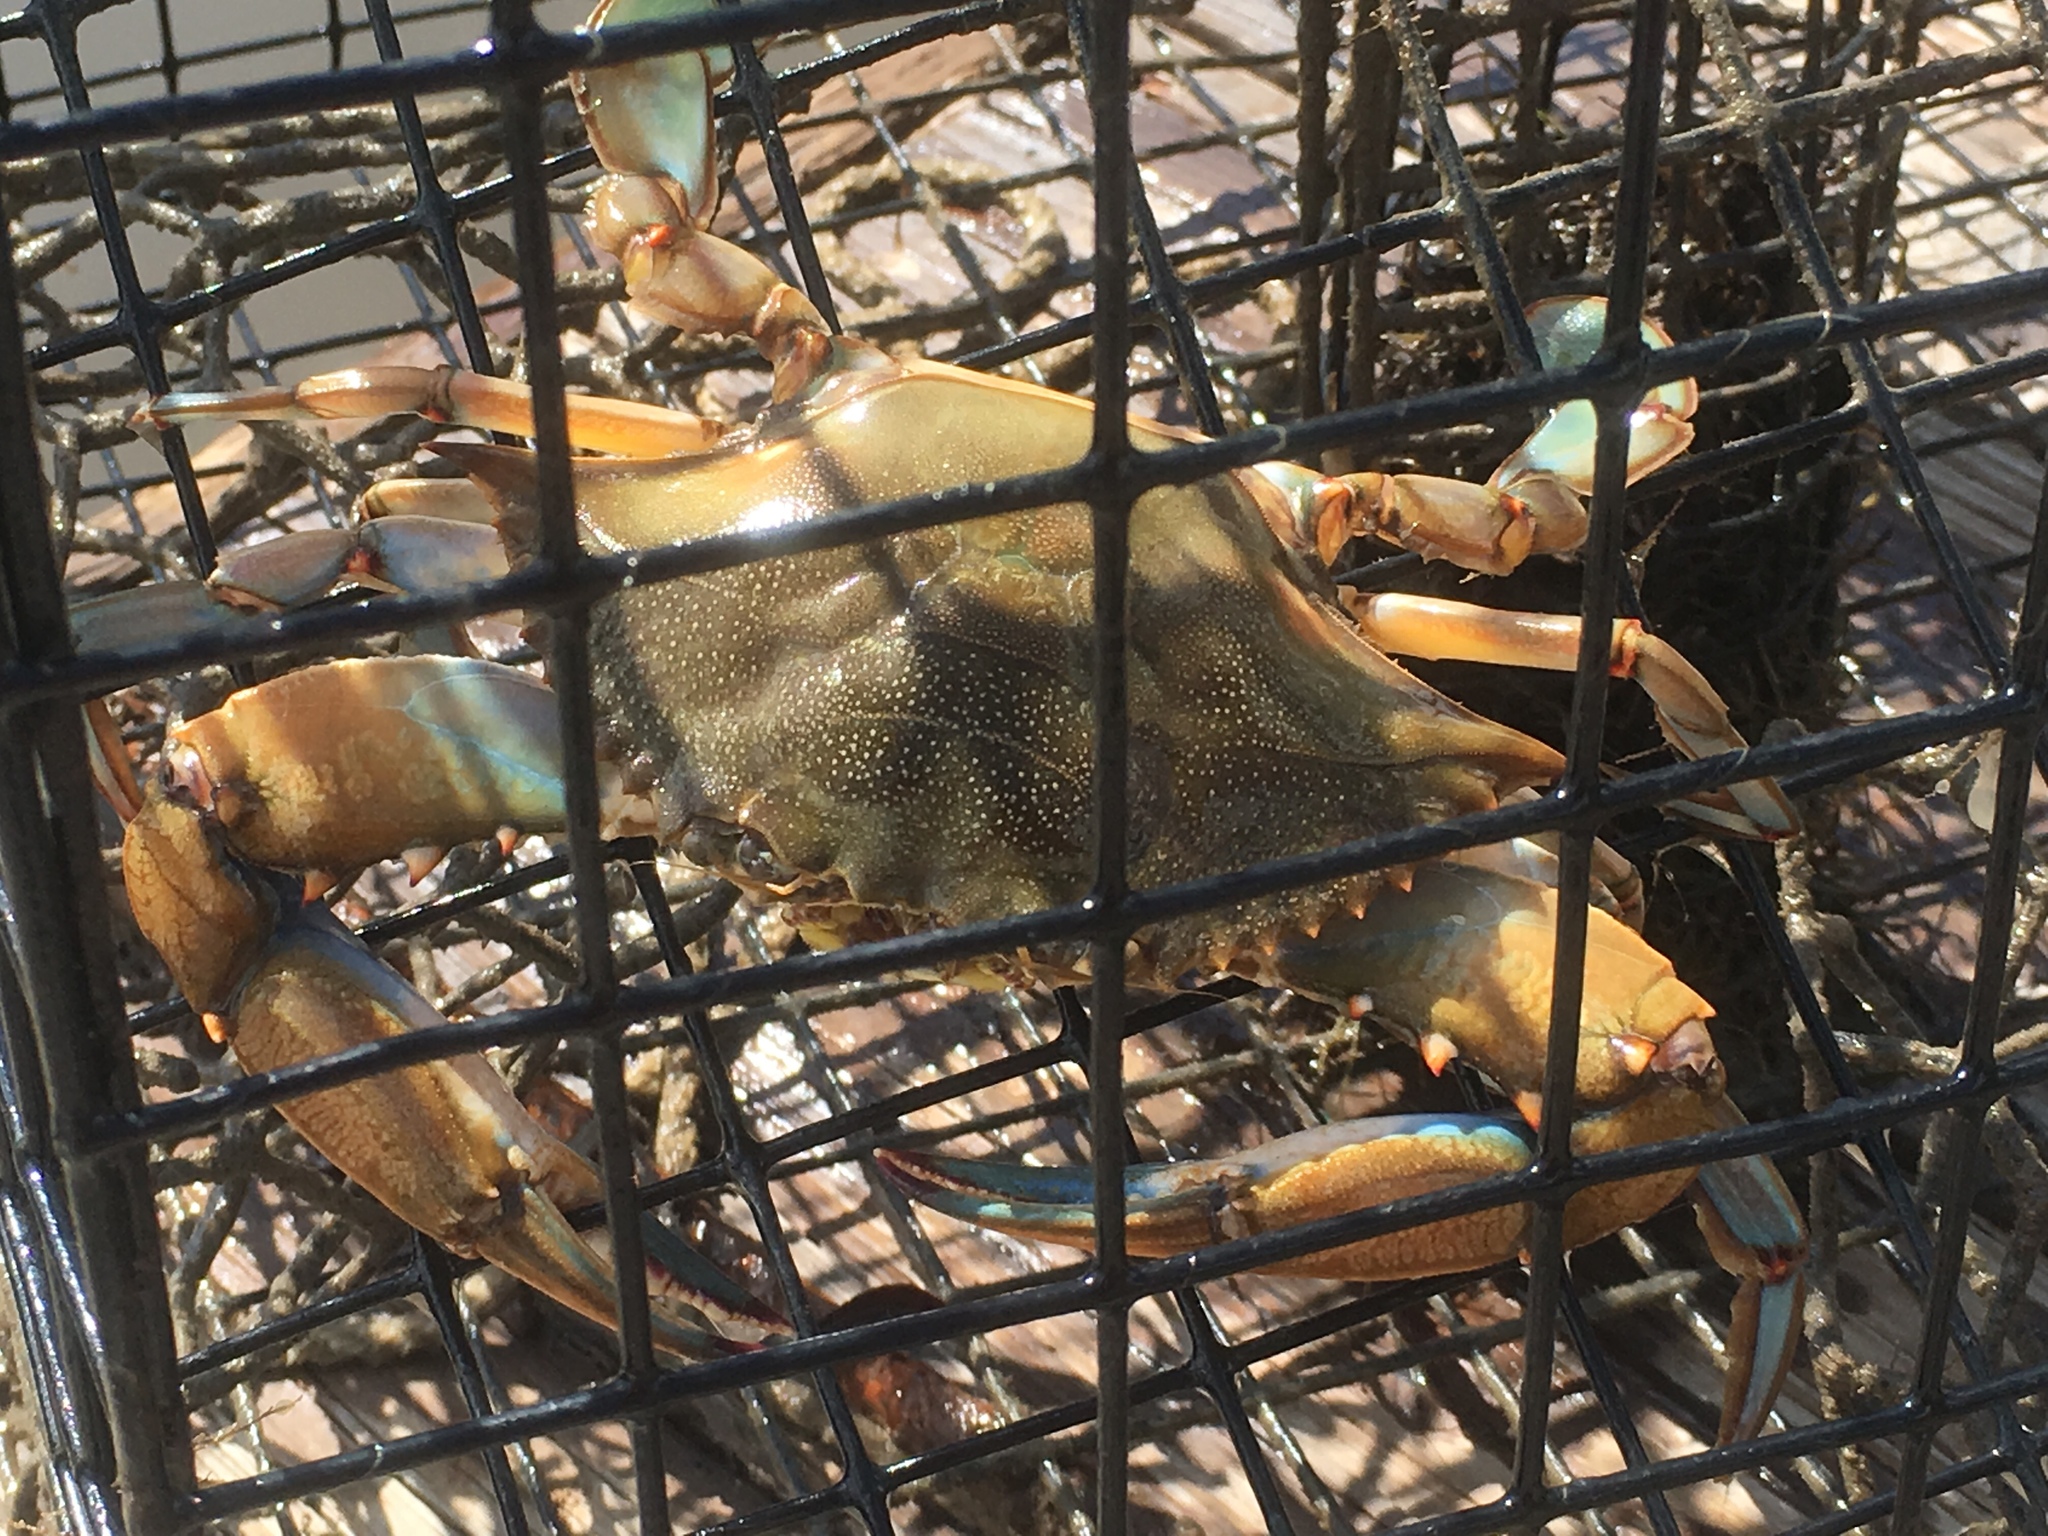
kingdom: Animalia
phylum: Arthropoda
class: Malacostraca
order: Decapoda
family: Portunidae
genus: Callinectes
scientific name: Callinectes sapidus
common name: Blue crab
